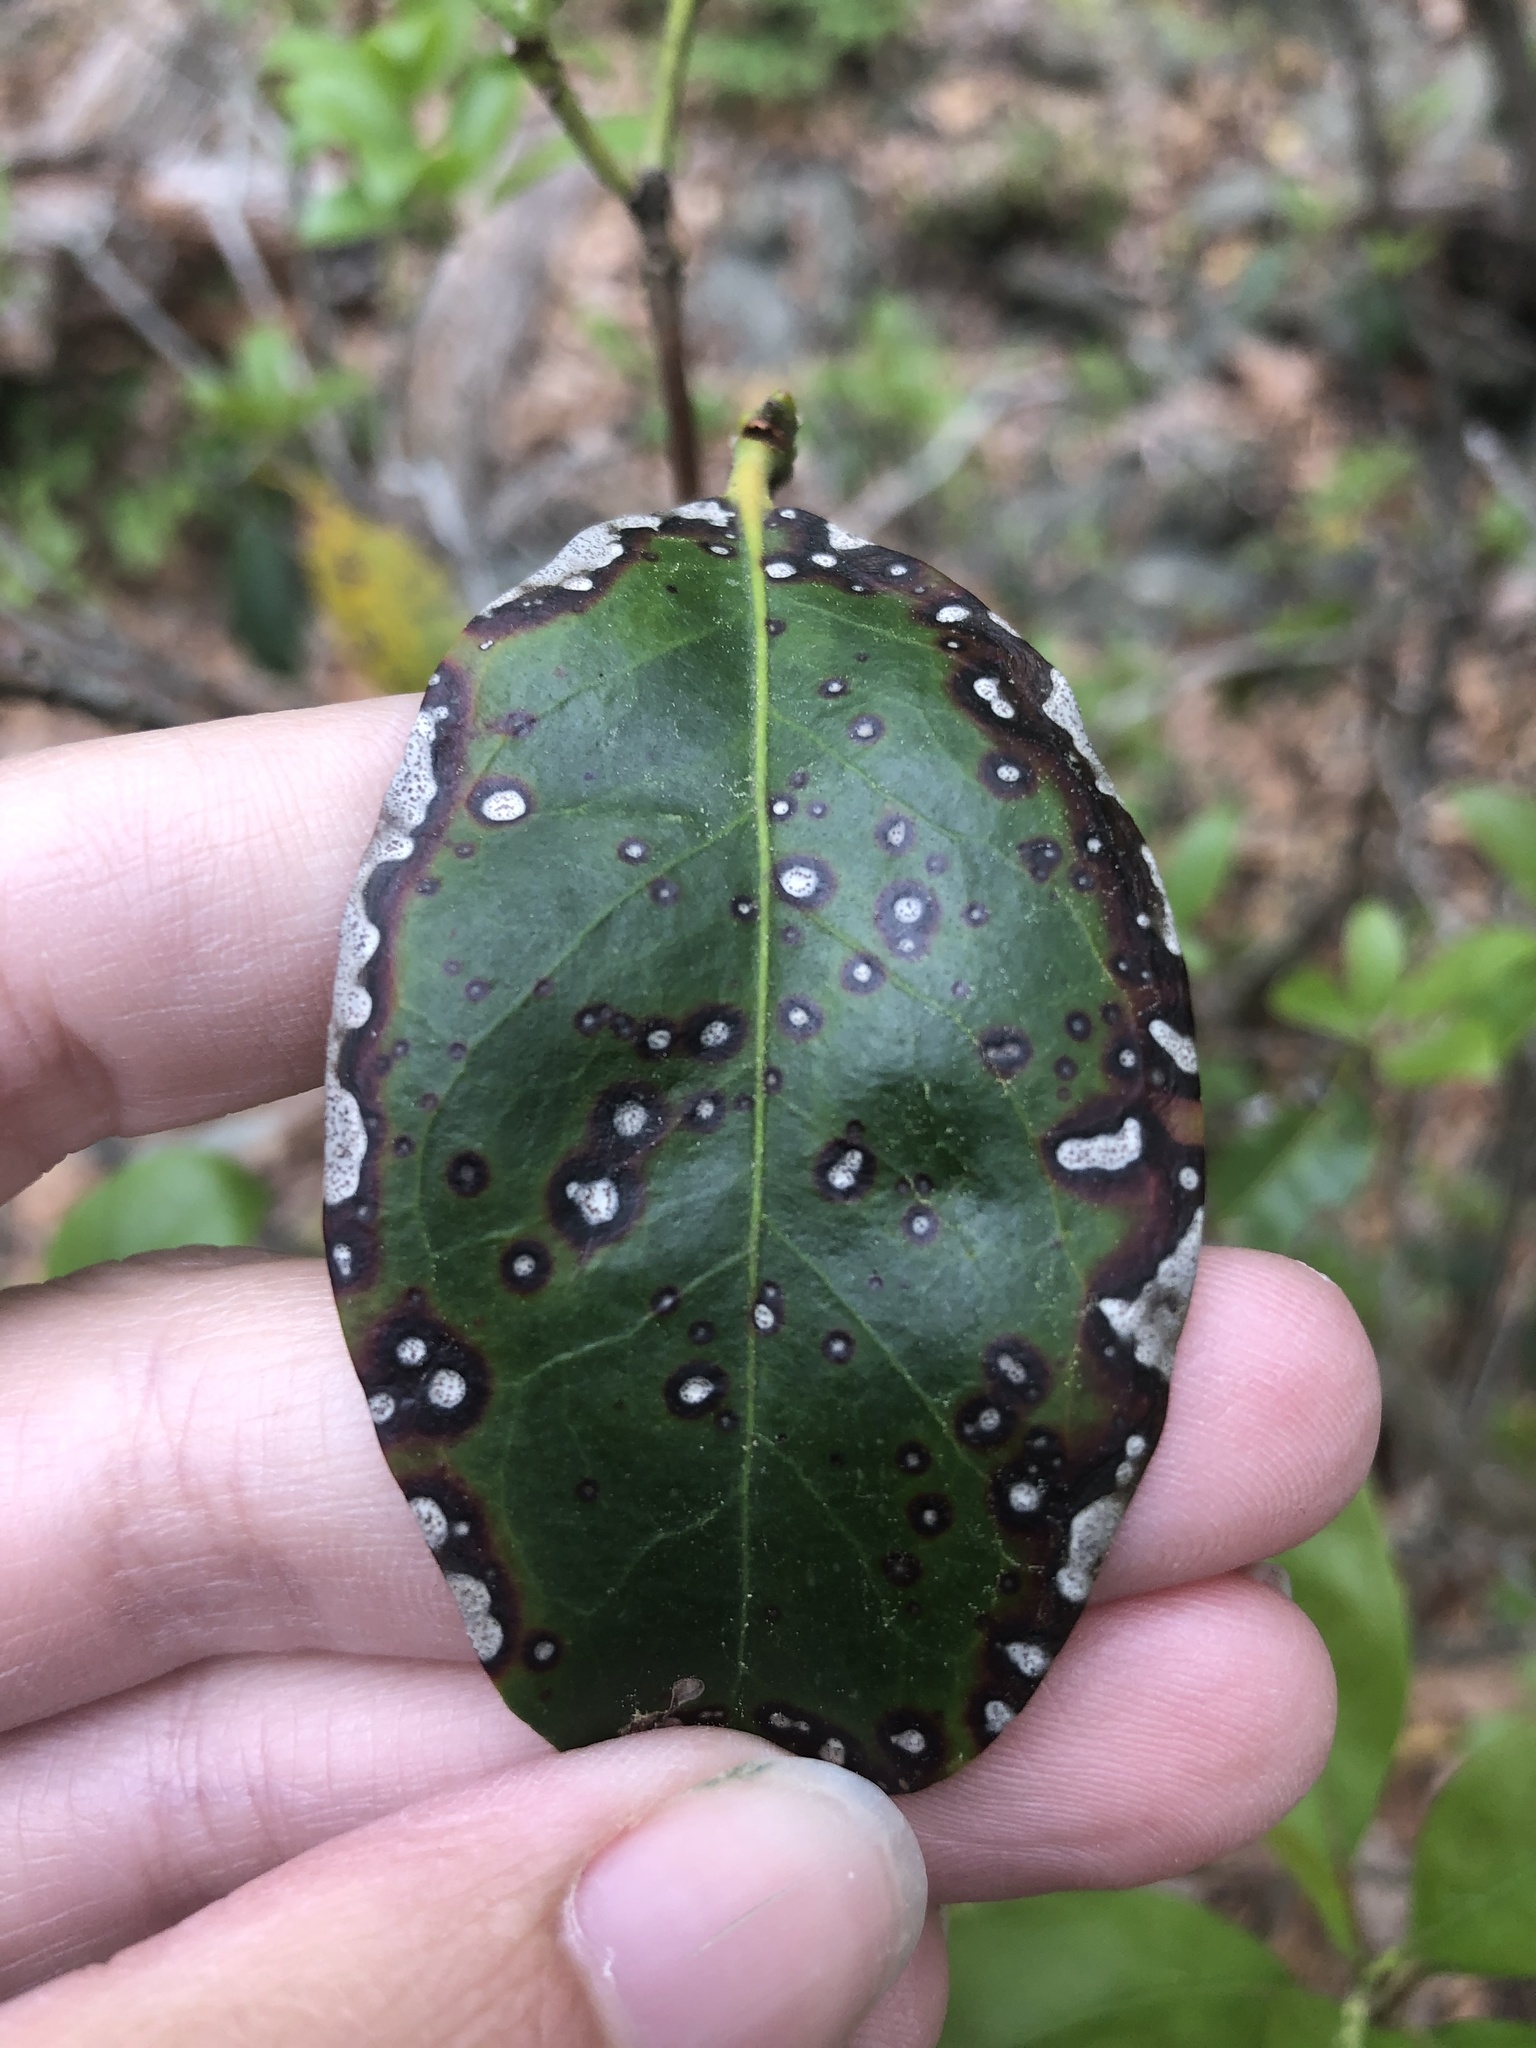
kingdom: Fungi
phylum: Ascomycota
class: Dothideomycetes
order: Mycosphaerellales
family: Mycosphaerellaceae
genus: Mycosphaerella
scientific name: Mycosphaerella colorata
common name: Mountain laurel leaf spot
